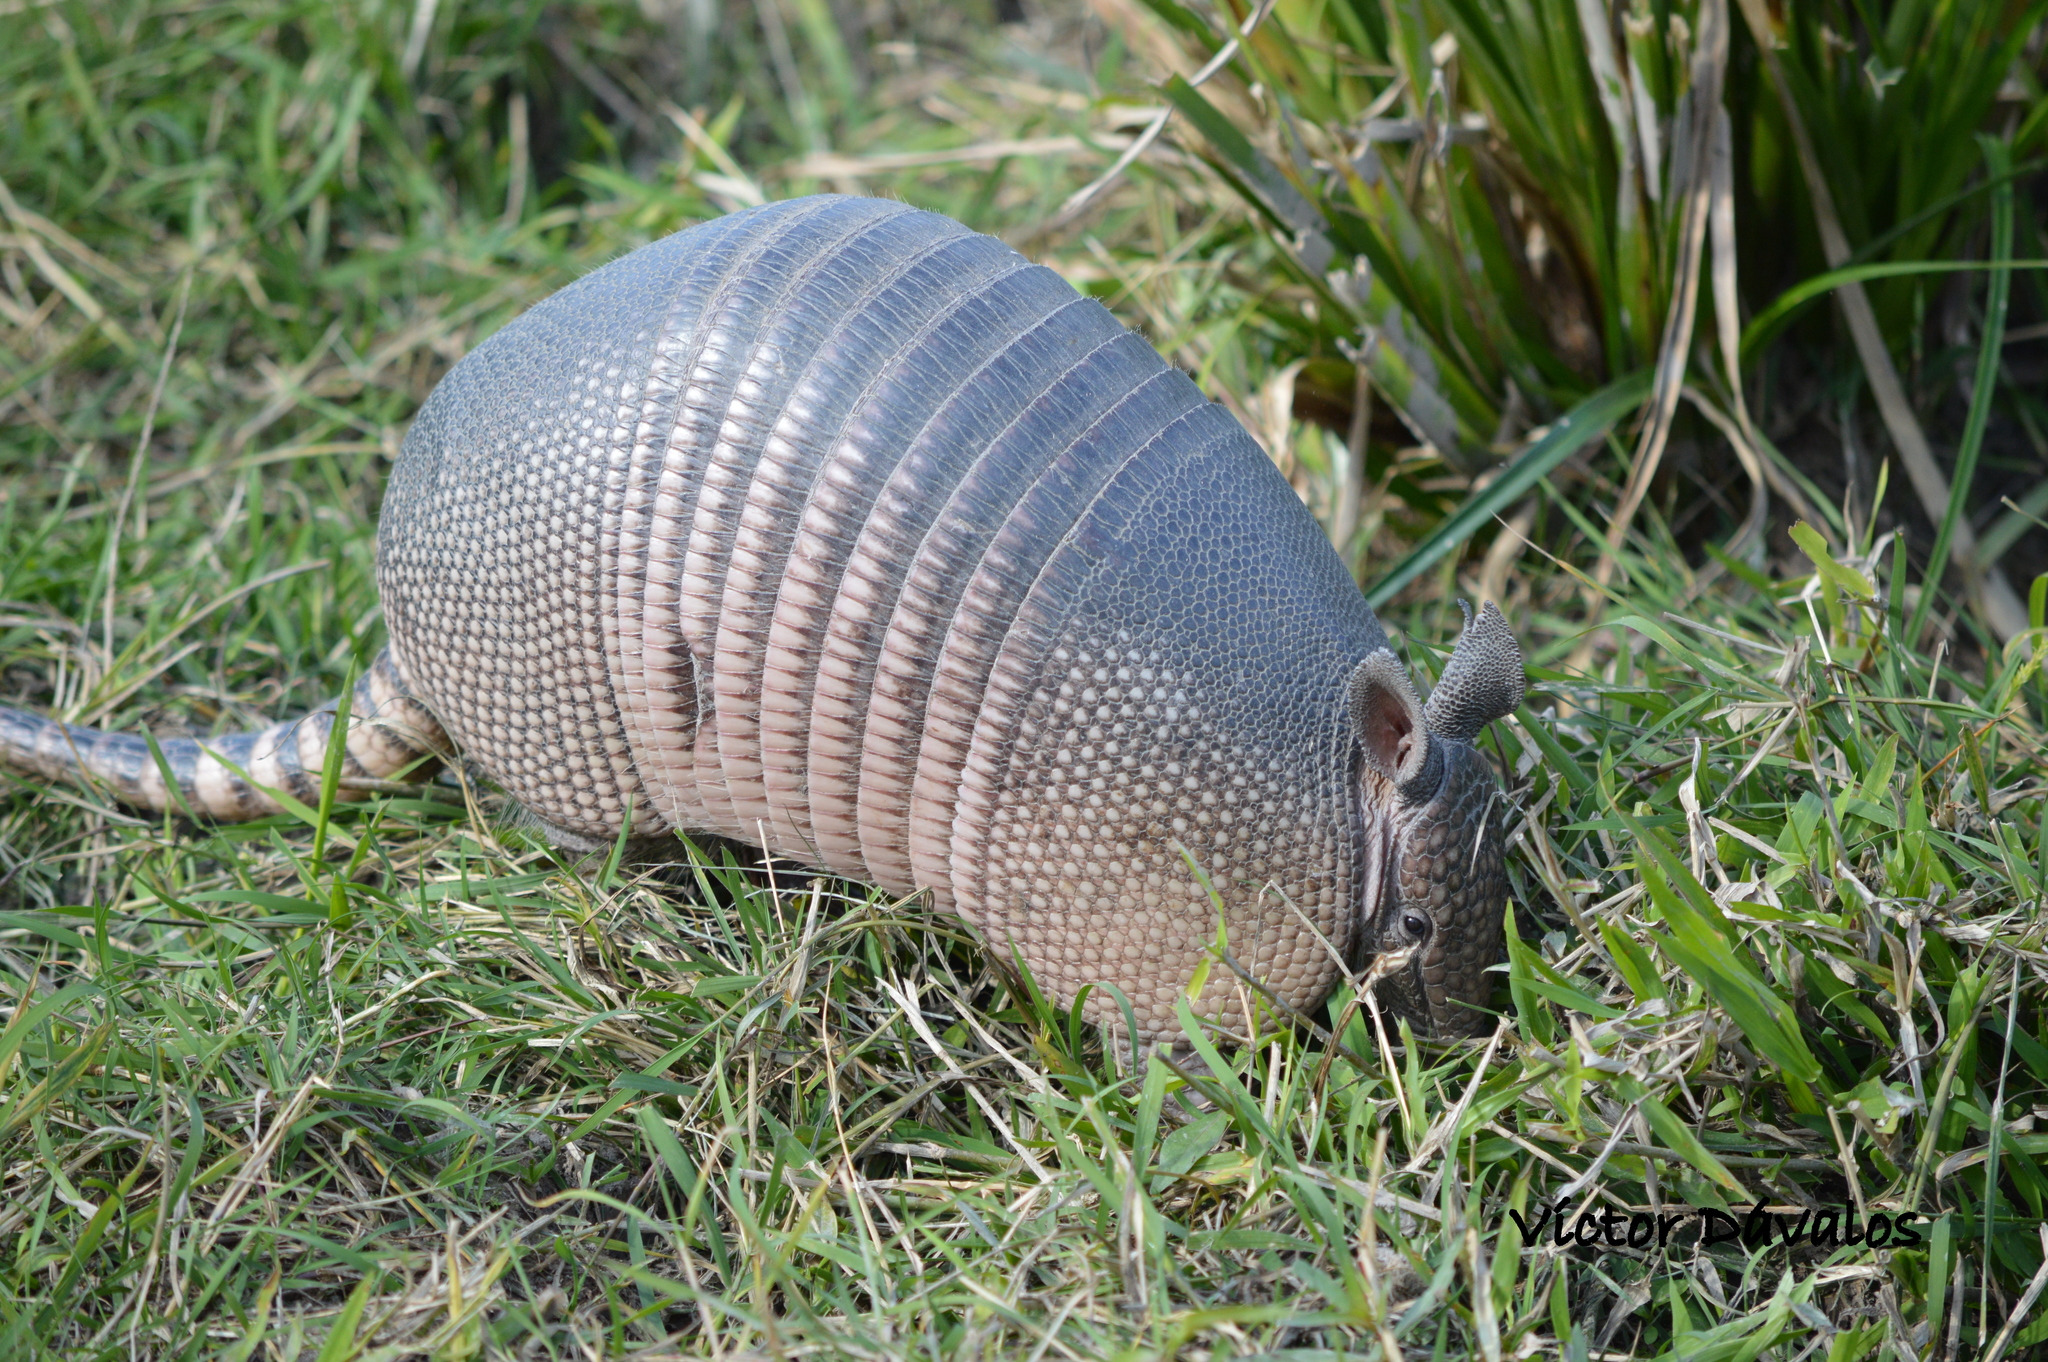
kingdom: Animalia
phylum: Chordata
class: Mammalia
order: Cingulata
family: Dasypodidae
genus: Dasypus
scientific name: Dasypus novemcinctus
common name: Nine-banded armadillo
